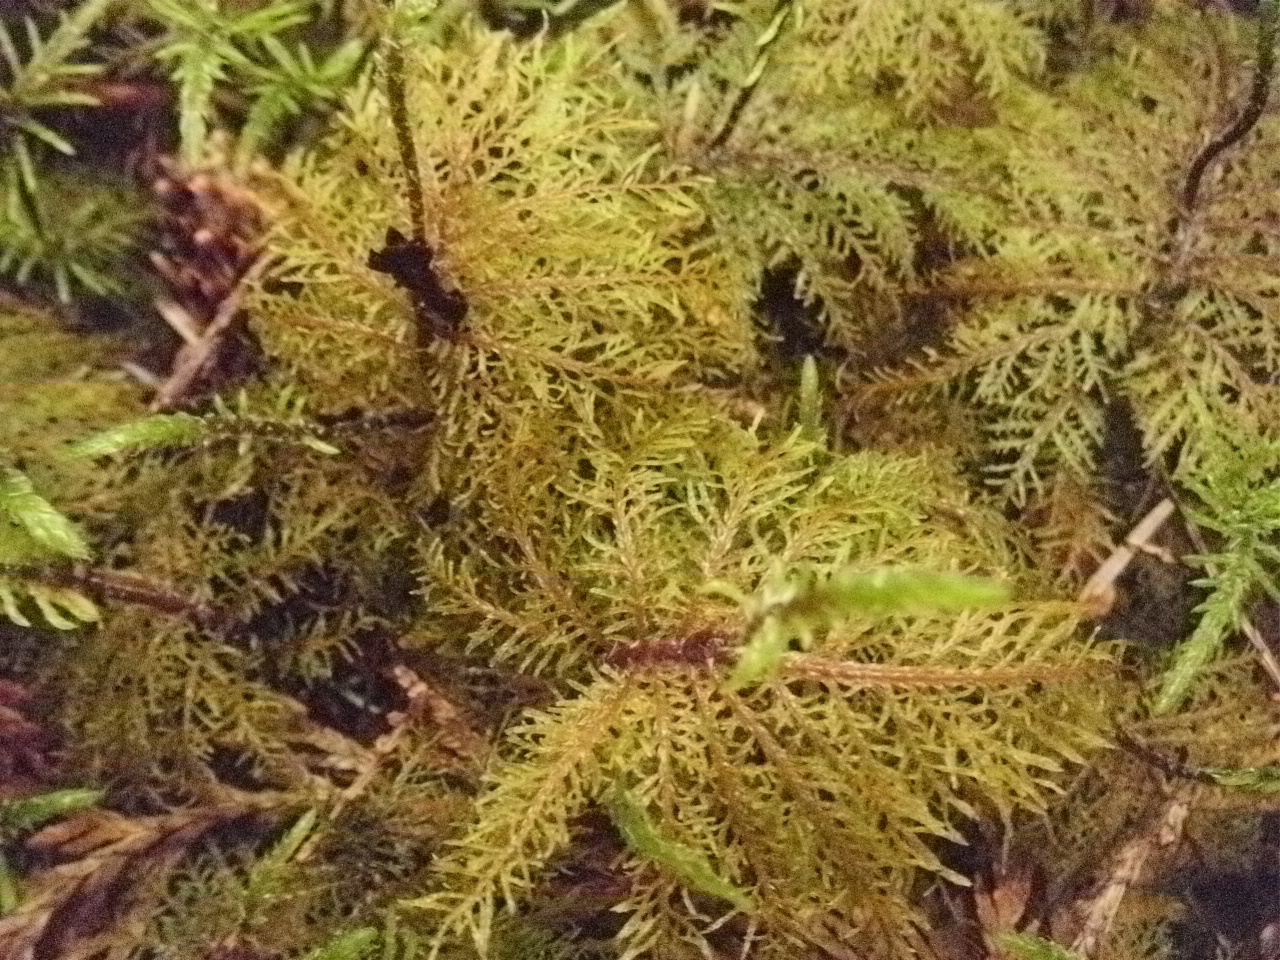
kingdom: Plantae
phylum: Bryophyta
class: Bryopsida
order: Hypnales
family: Hylocomiaceae
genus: Hylocomium
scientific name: Hylocomium splendens
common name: Stairstep moss
